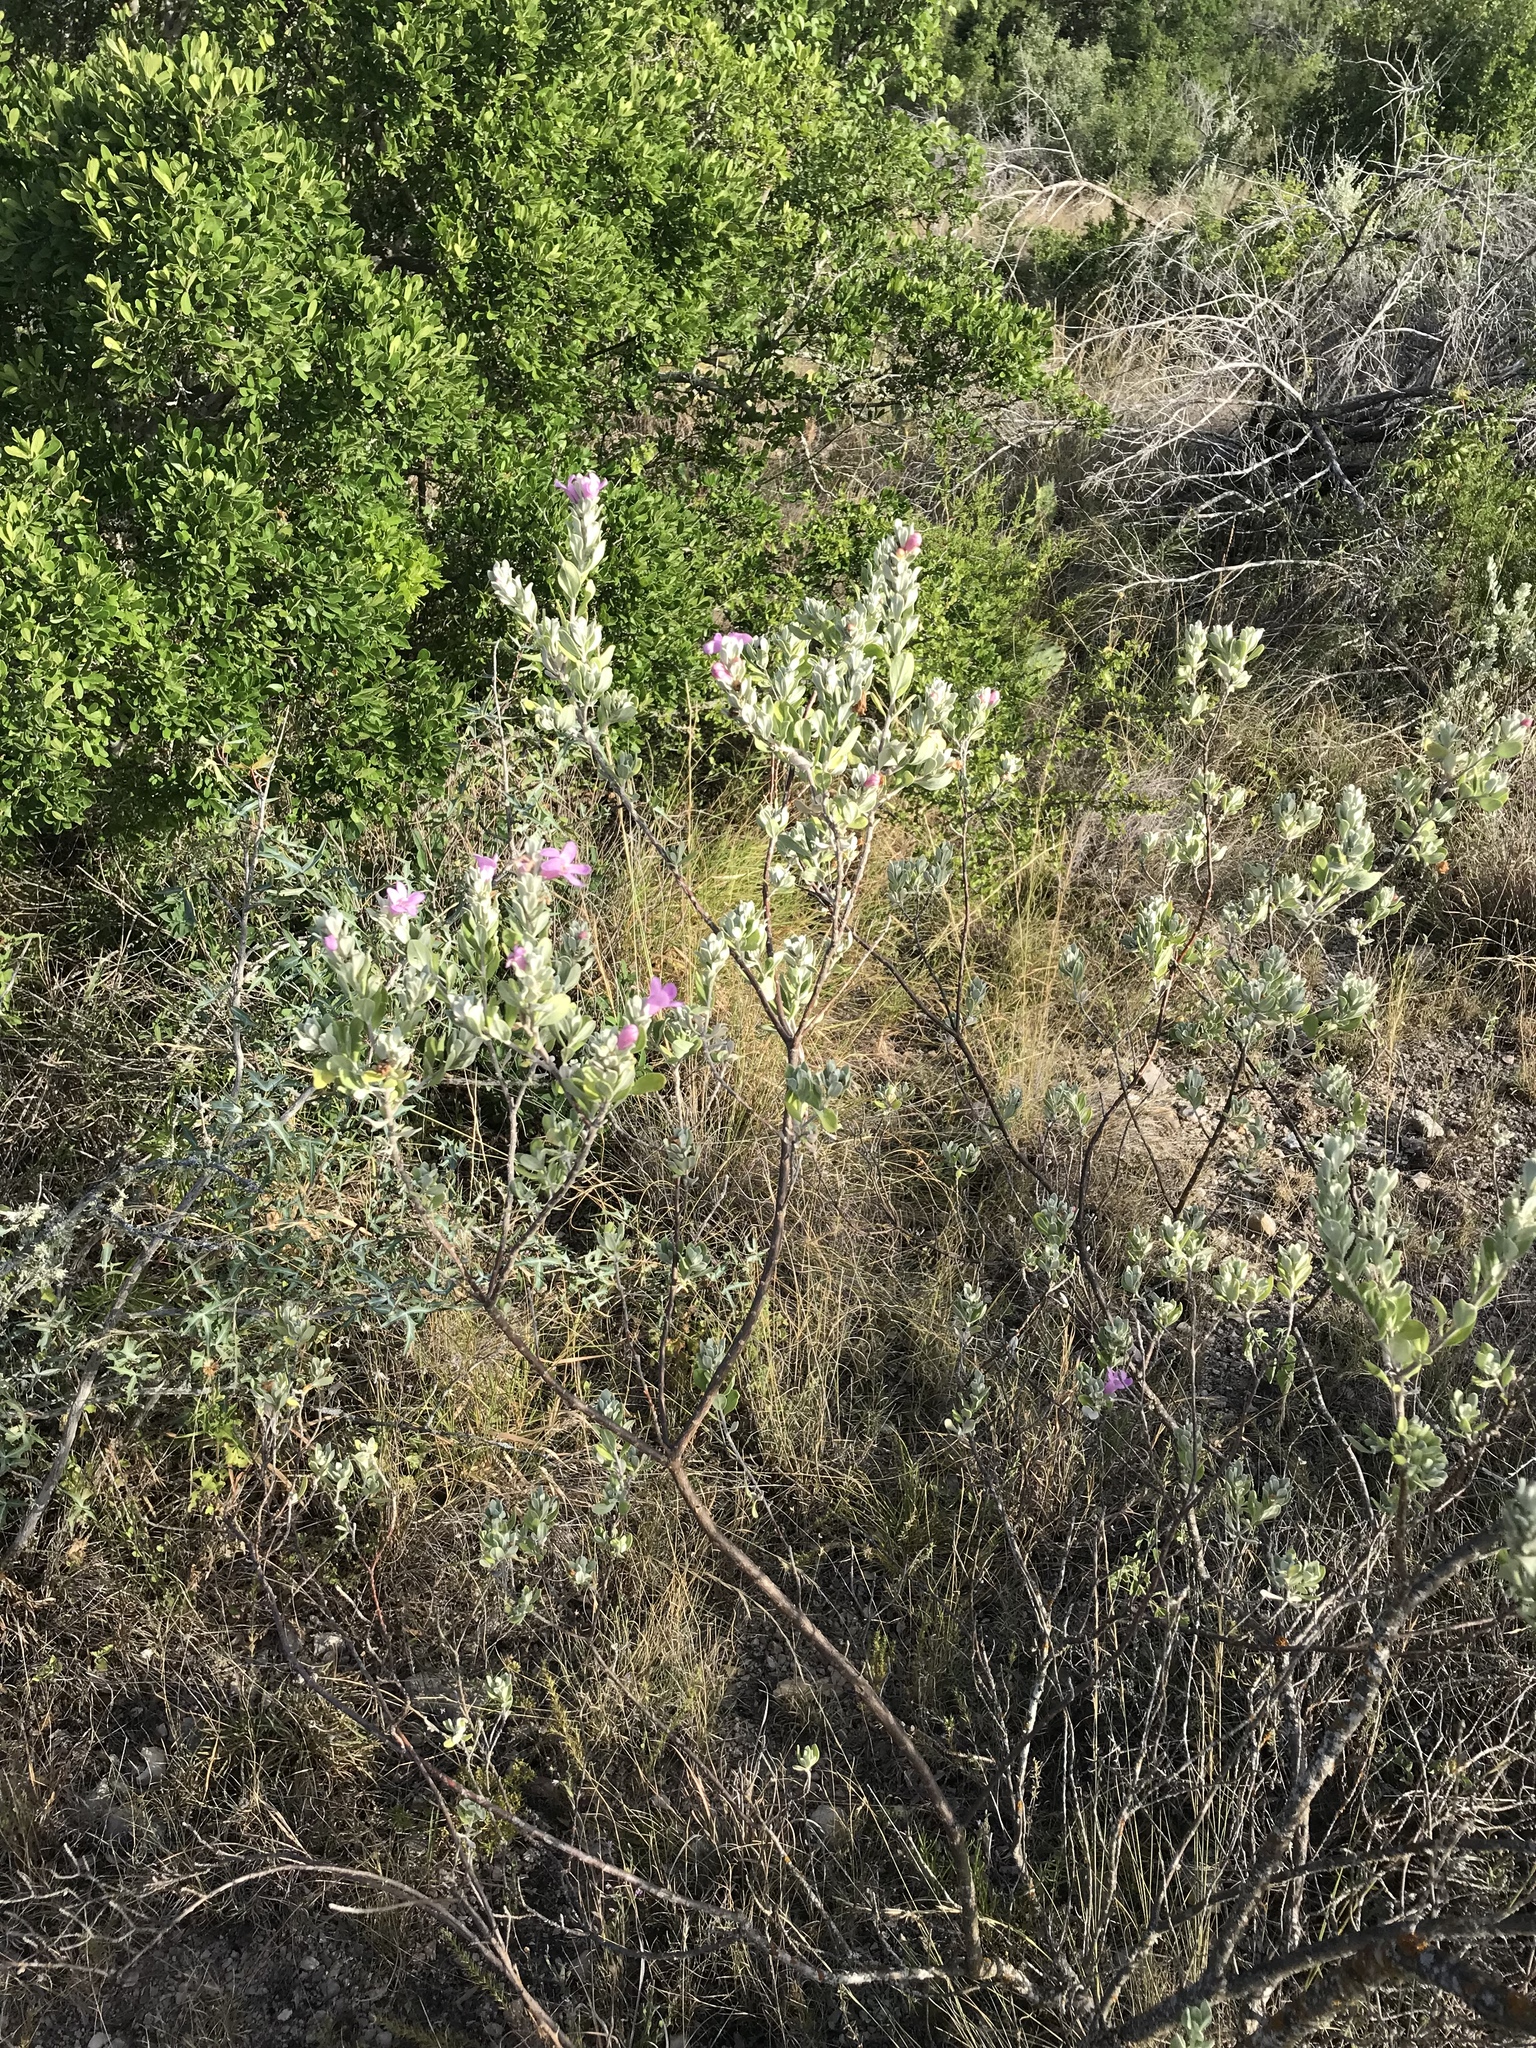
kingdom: Plantae
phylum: Tracheophyta
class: Magnoliopsida
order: Lamiales
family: Scrophulariaceae
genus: Leucophyllum
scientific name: Leucophyllum frutescens
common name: Texas silverleaf
